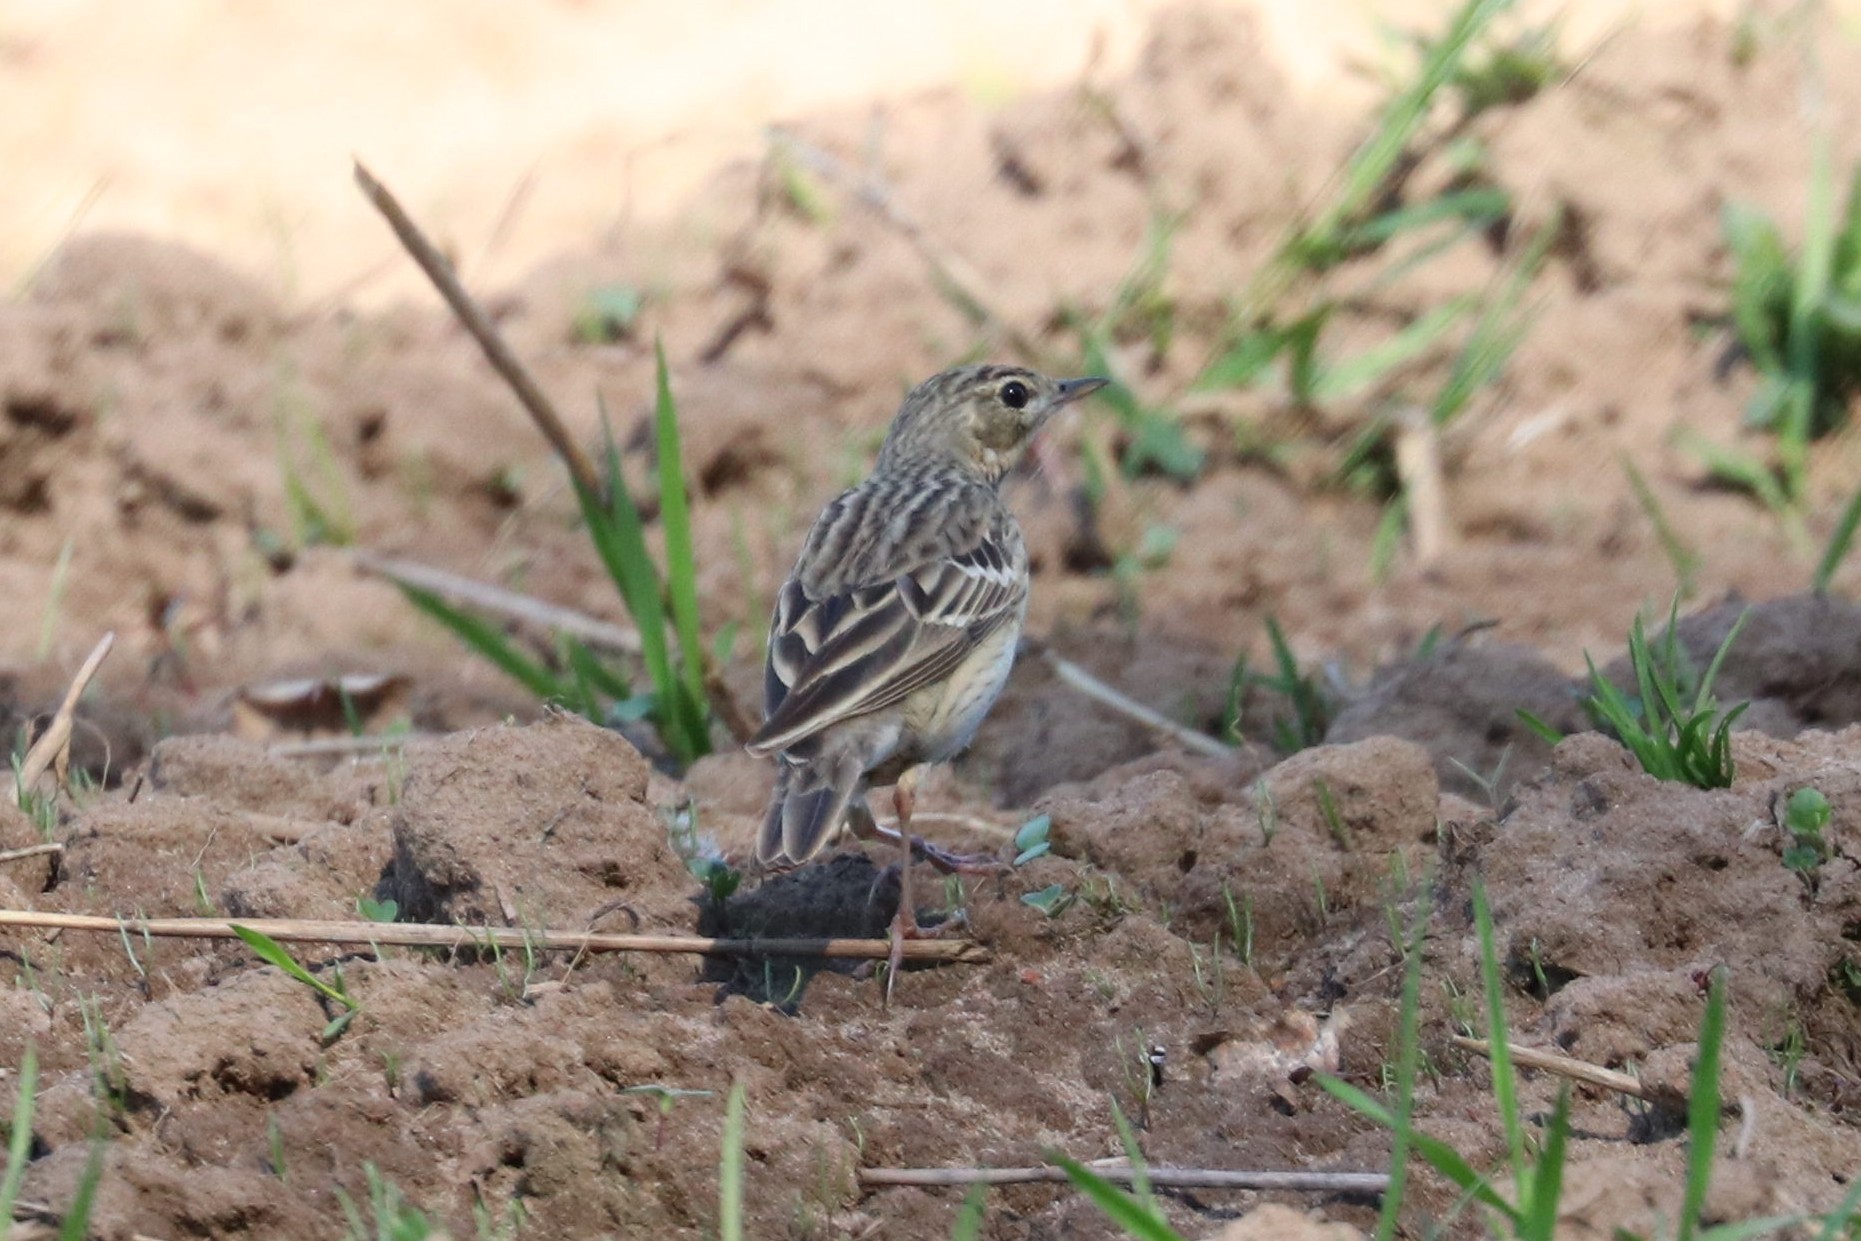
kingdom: Animalia
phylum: Chordata
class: Aves
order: Passeriformes
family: Motacillidae
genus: Anthus
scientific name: Anthus trivialis
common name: Tree pipit
